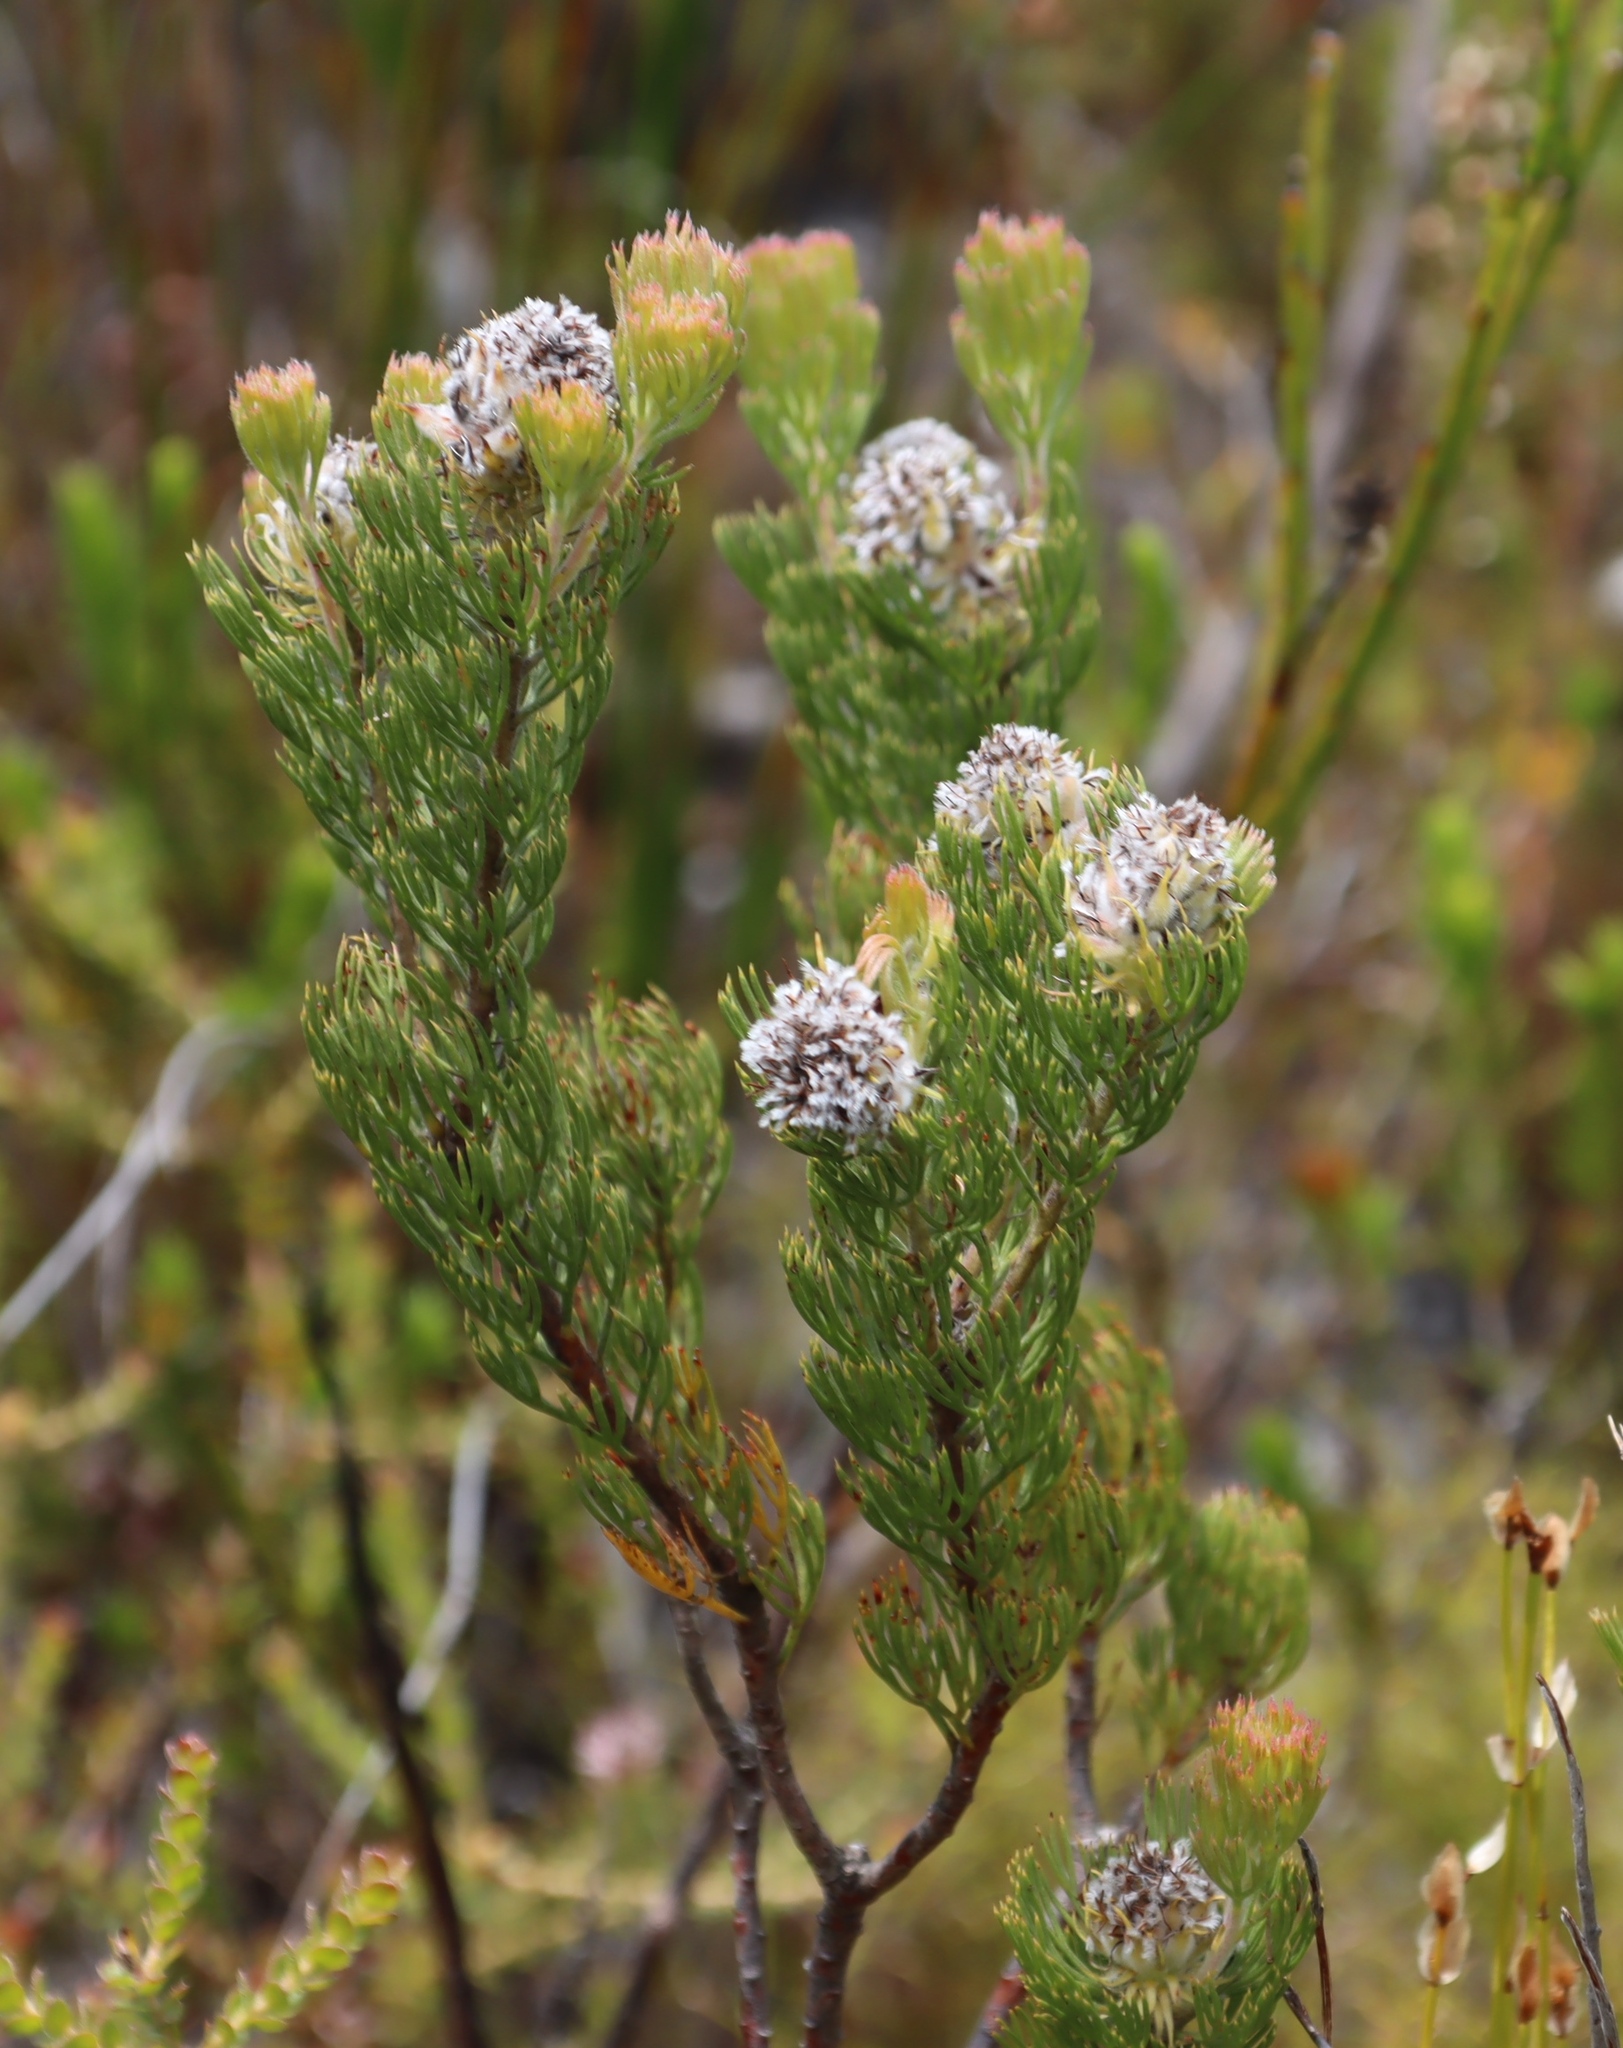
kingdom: Plantae
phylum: Tracheophyta
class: Magnoliopsida
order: Proteales
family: Proteaceae
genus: Serruria
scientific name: Serruria villosa
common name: Golden spiderhead
